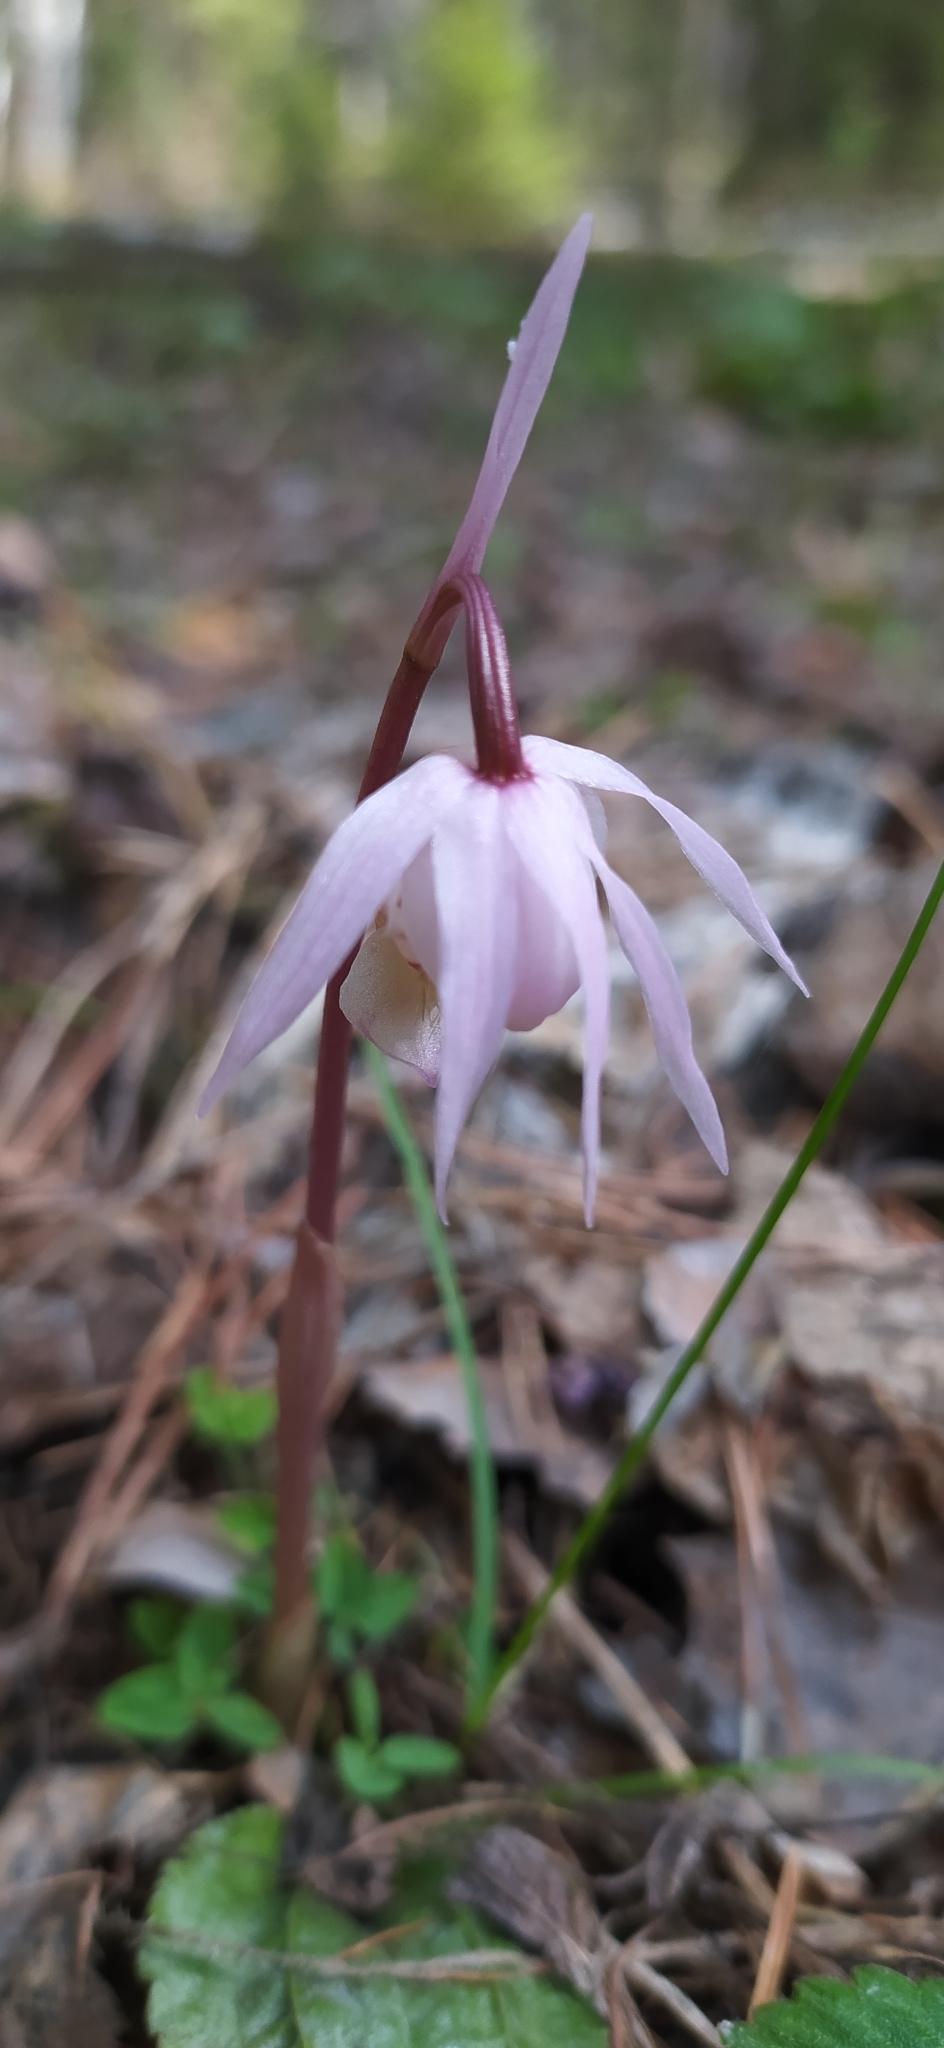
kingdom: Plantae
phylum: Tracheophyta
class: Liliopsida
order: Asparagales
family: Orchidaceae
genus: Calypso
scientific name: Calypso bulbosa
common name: Calypso
